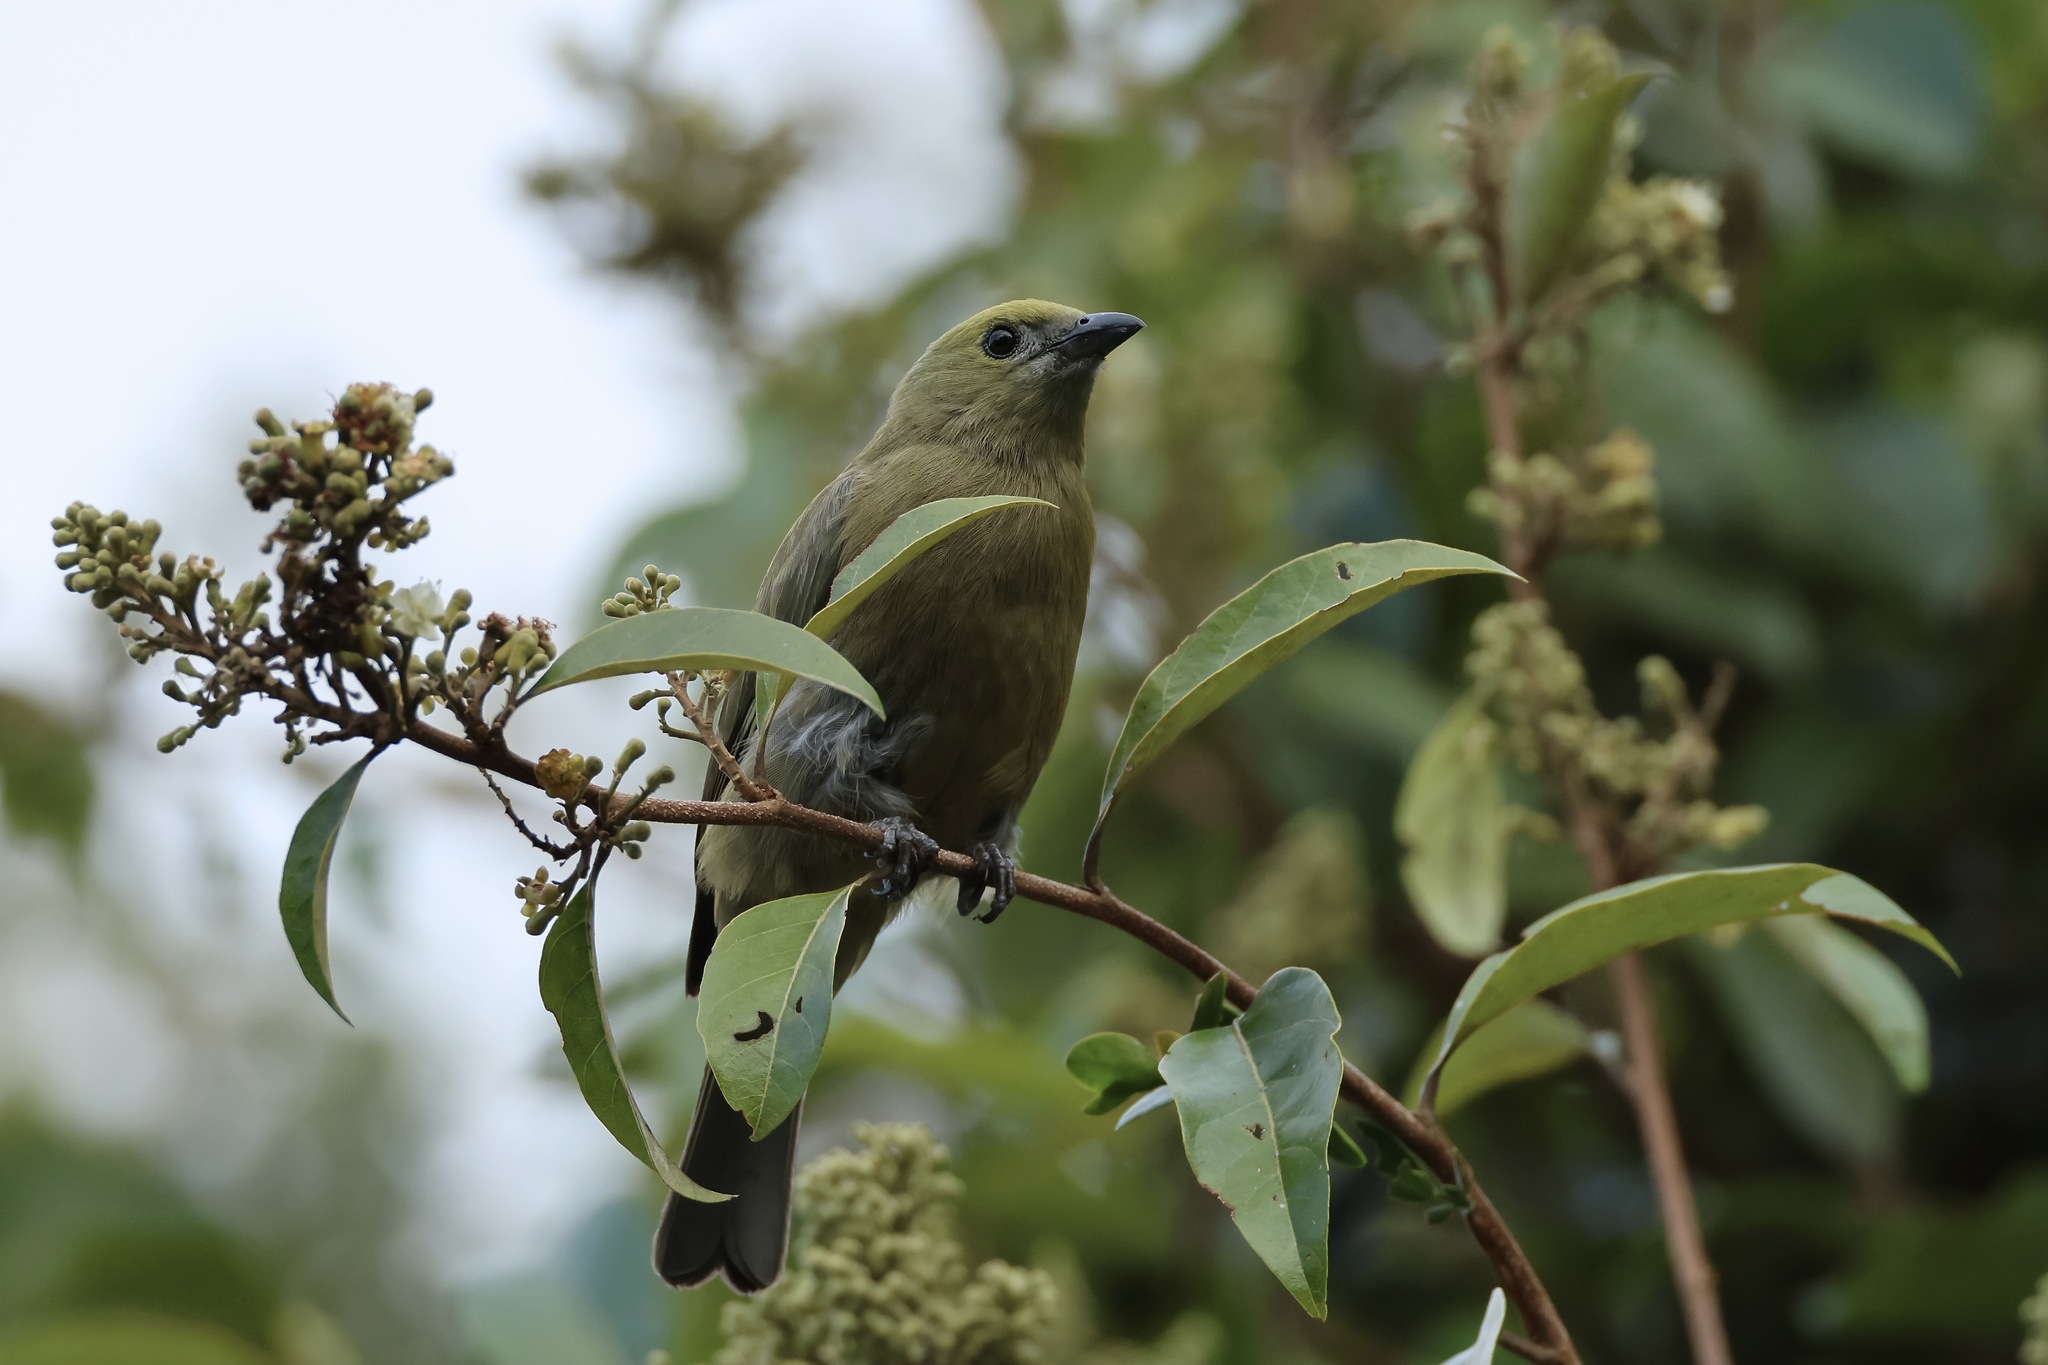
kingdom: Animalia
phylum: Chordata
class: Aves
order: Passeriformes
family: Thraupidae
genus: Thraupis
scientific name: Thraupis palmarum
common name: Palm tanager
